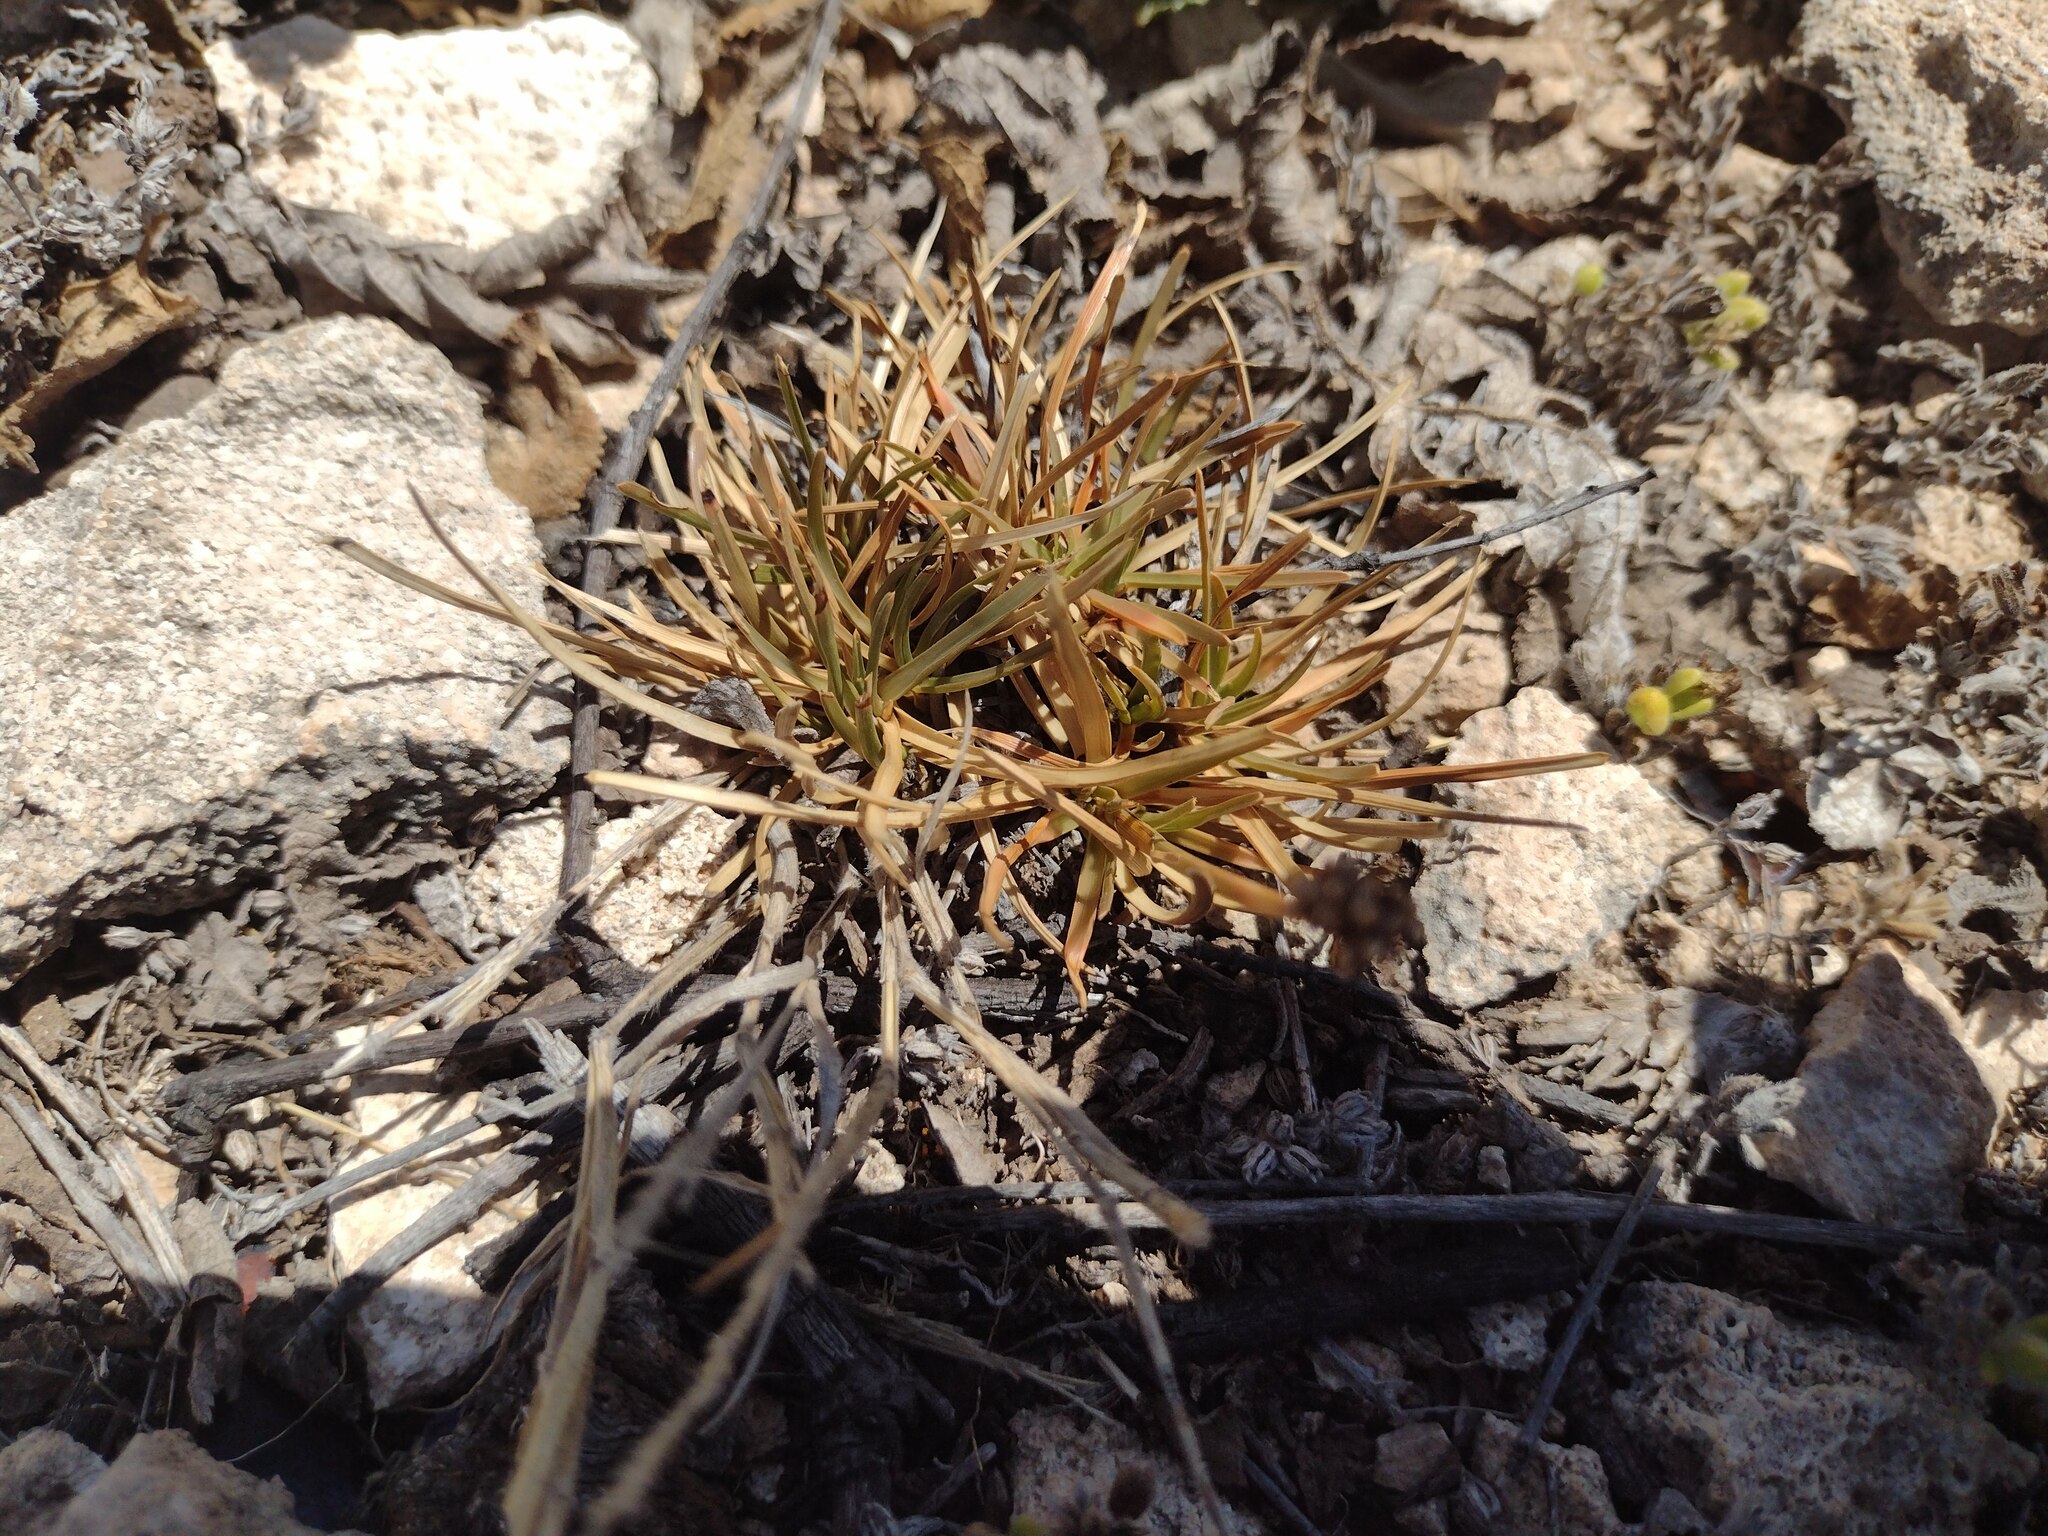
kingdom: Plantae
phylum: Tracheophyta
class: Liliopsida
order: Poales
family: Cyperaceae
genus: Fimbristylis
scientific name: Fimbristylis cymosa
